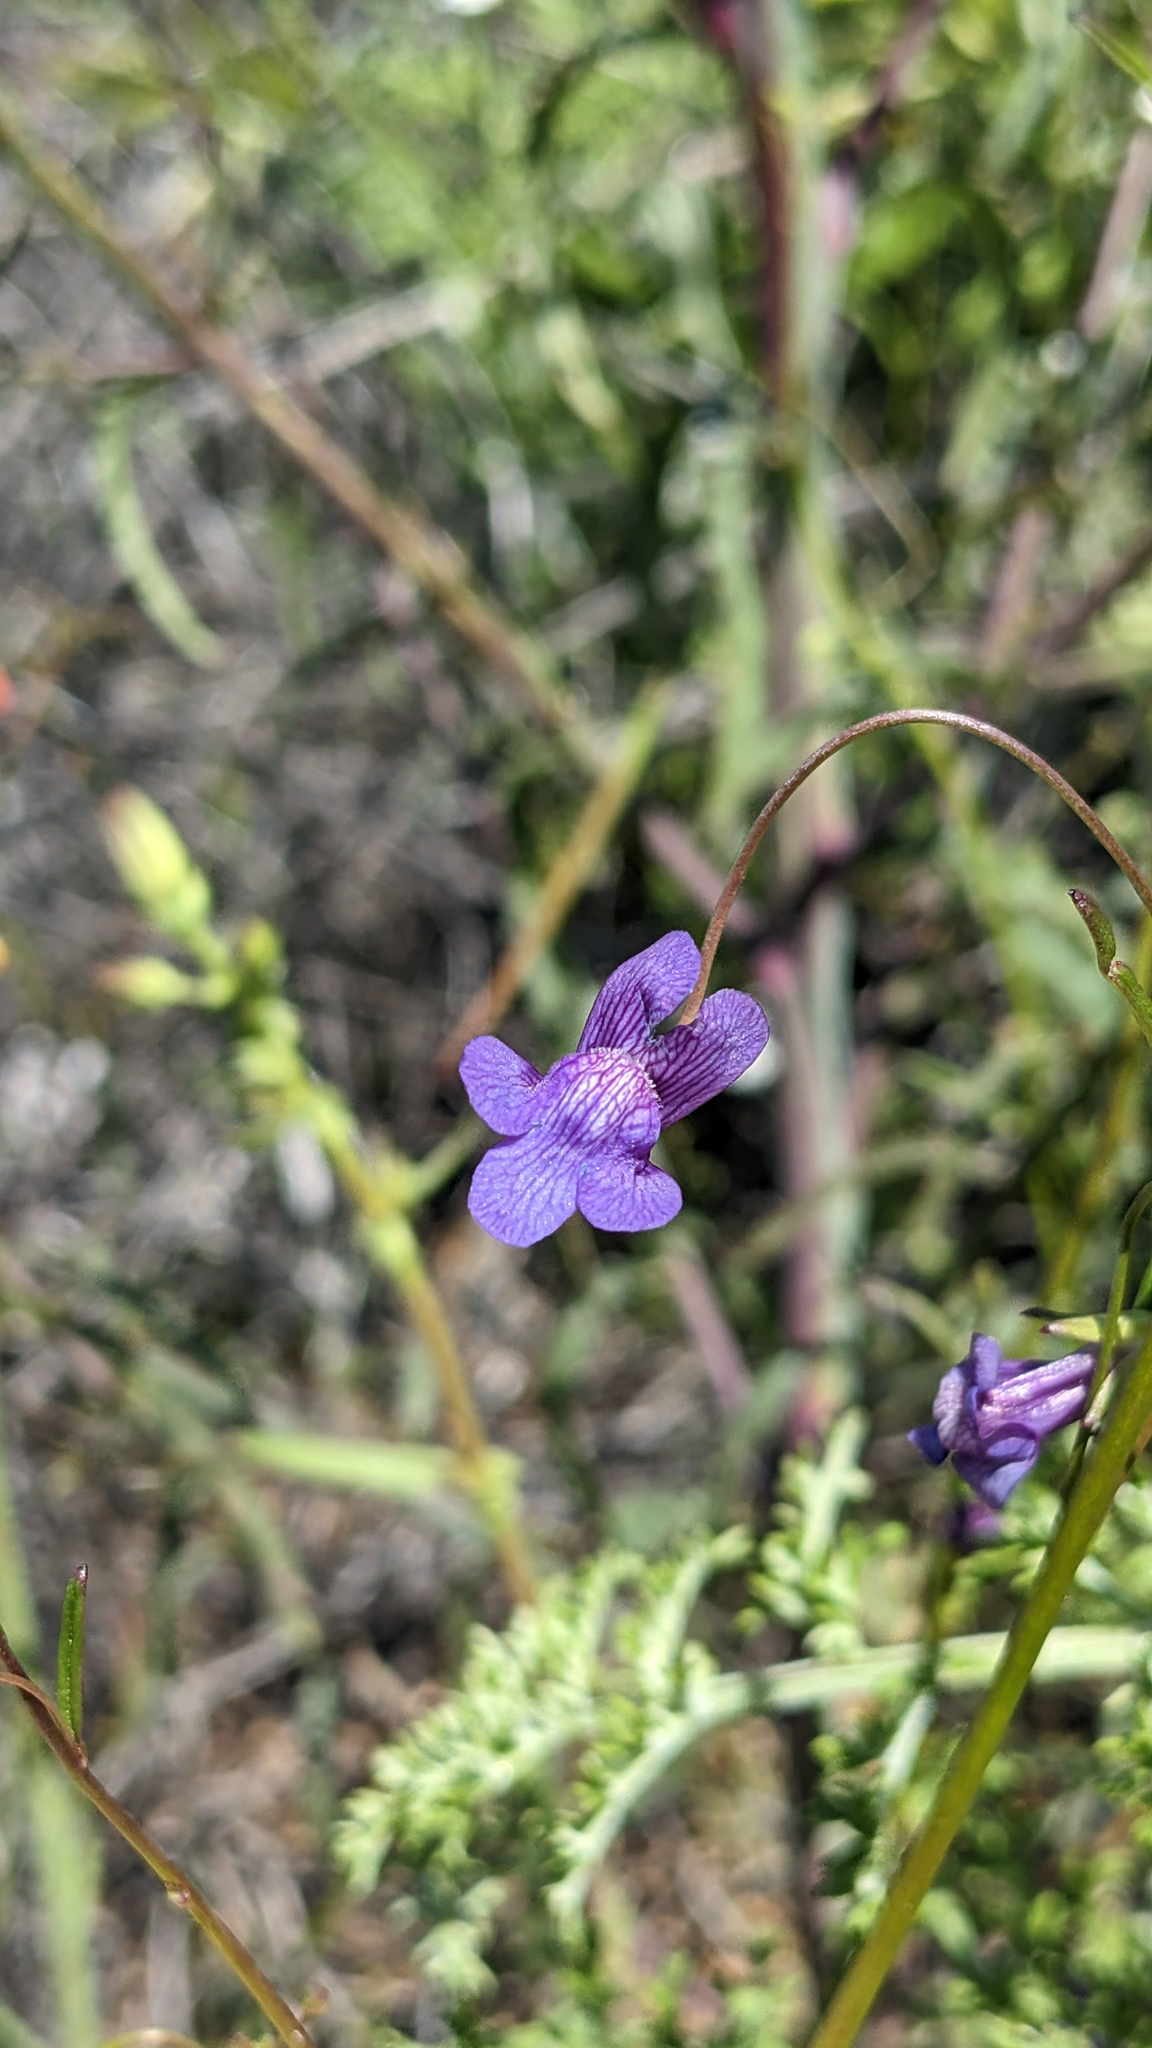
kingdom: Plantae
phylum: Tracheophyta
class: Magnoliopsida
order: Lamiales
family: Plantaginaceae
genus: Neogaerrhinum
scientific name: Neogaerrhinum strictum
